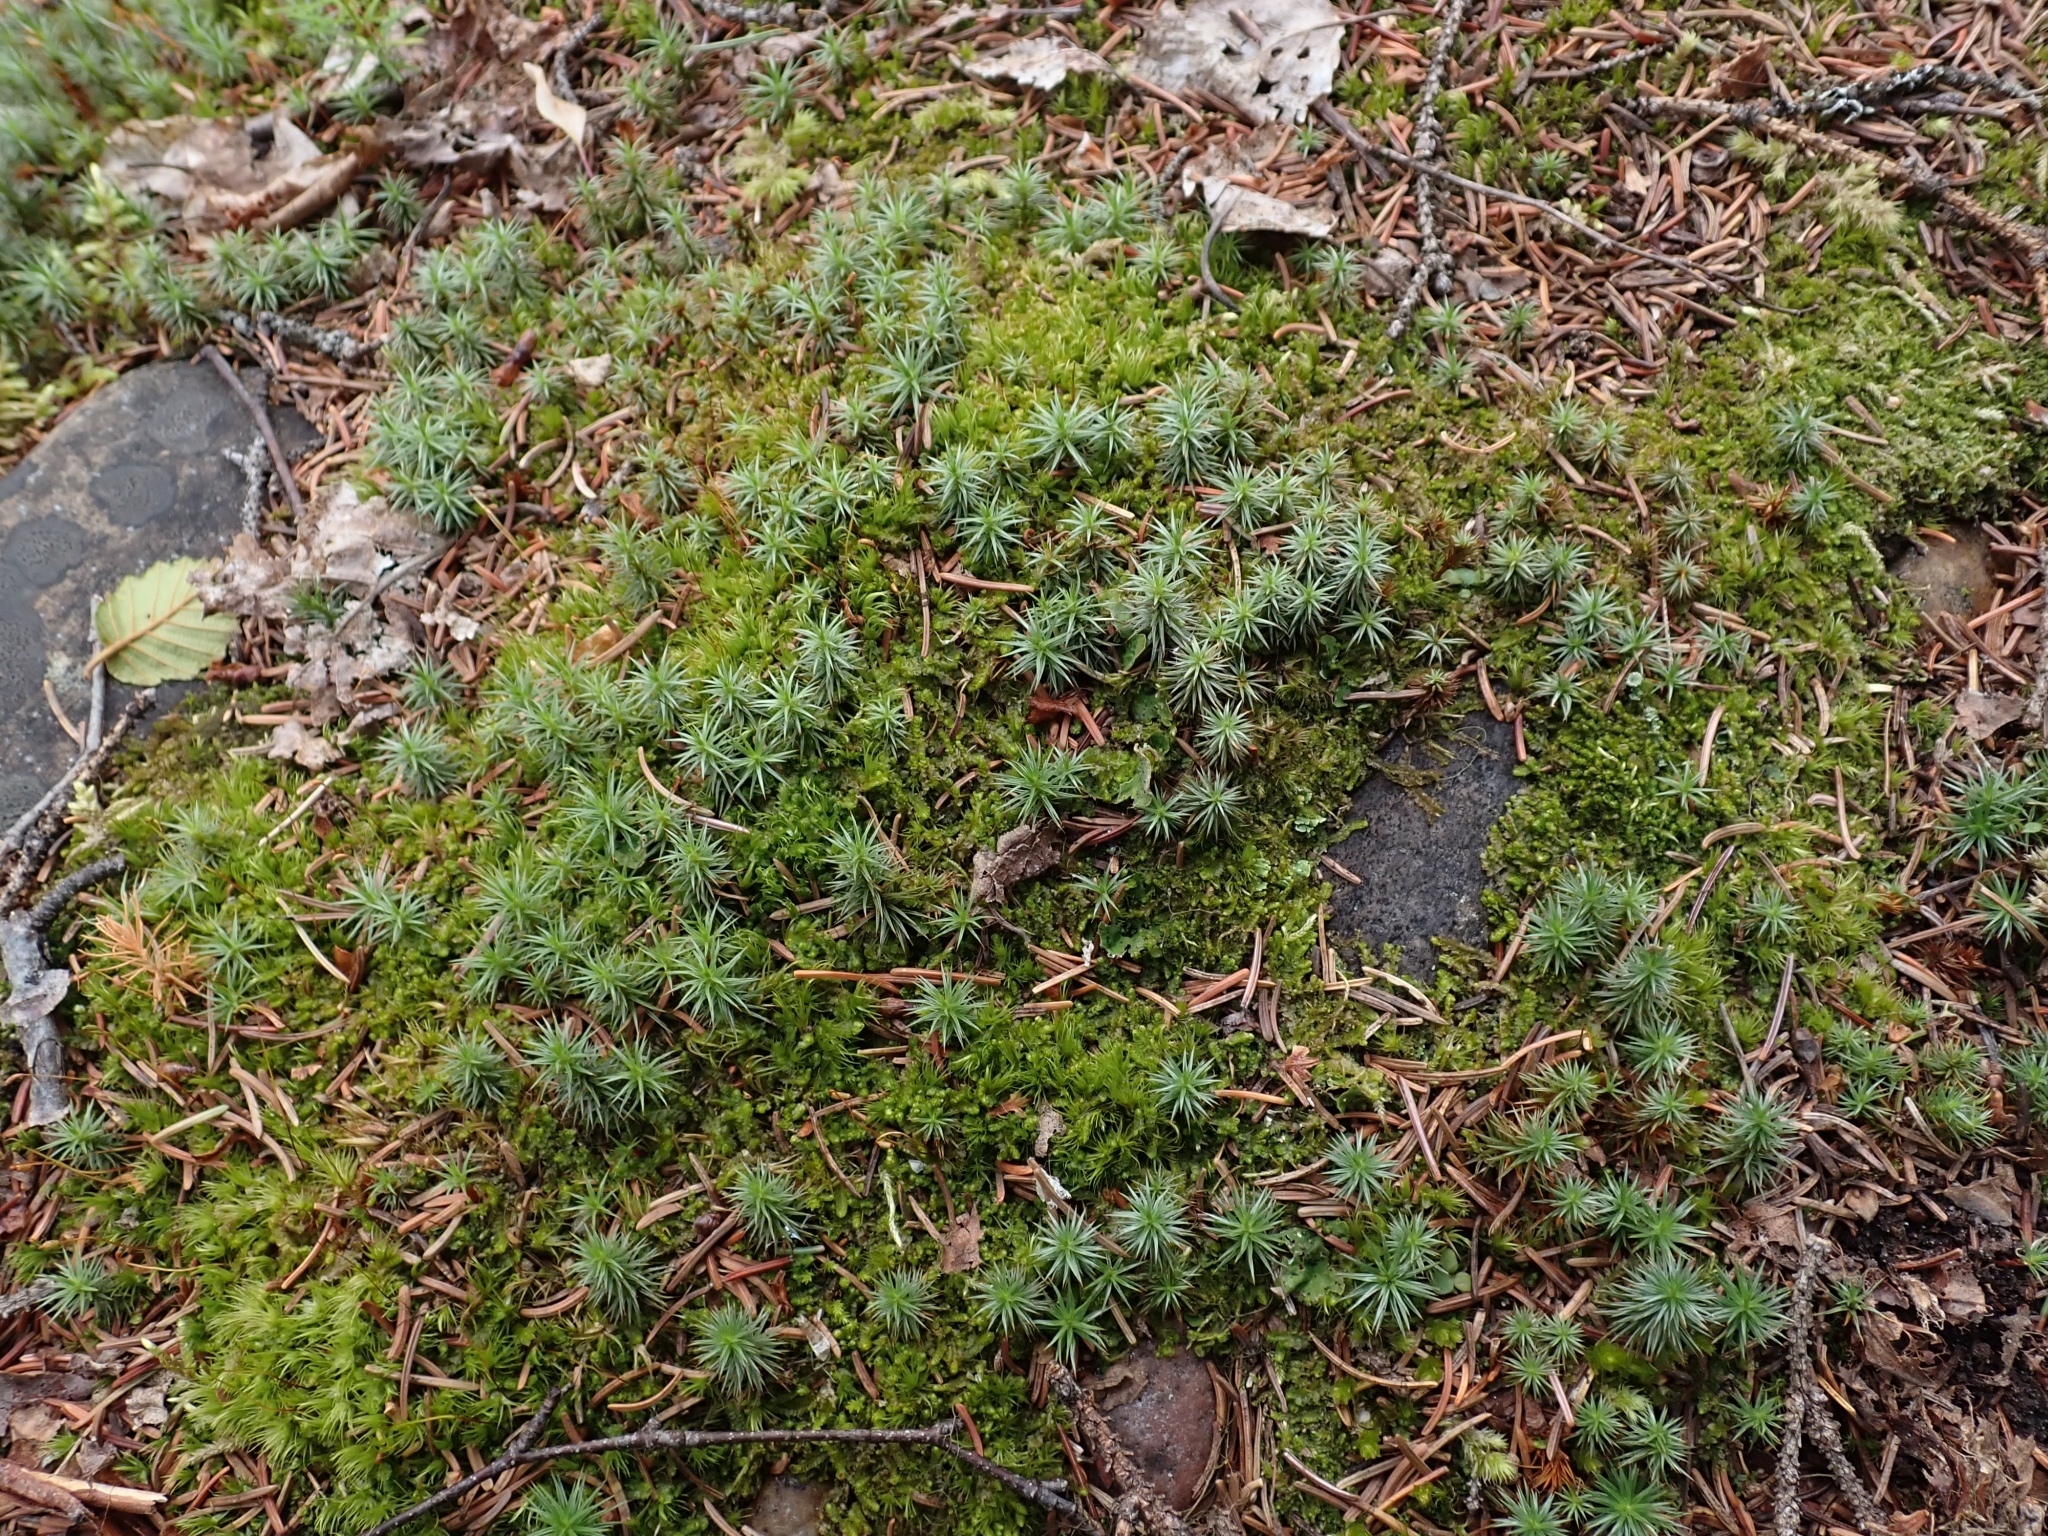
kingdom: Plantae
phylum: Bryophyta
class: Polytrichopsida
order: Polytrichales
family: Polytrichaceae
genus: Polytrichum
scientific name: Polytrichum juniperinum
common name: Juniper haircap moss
